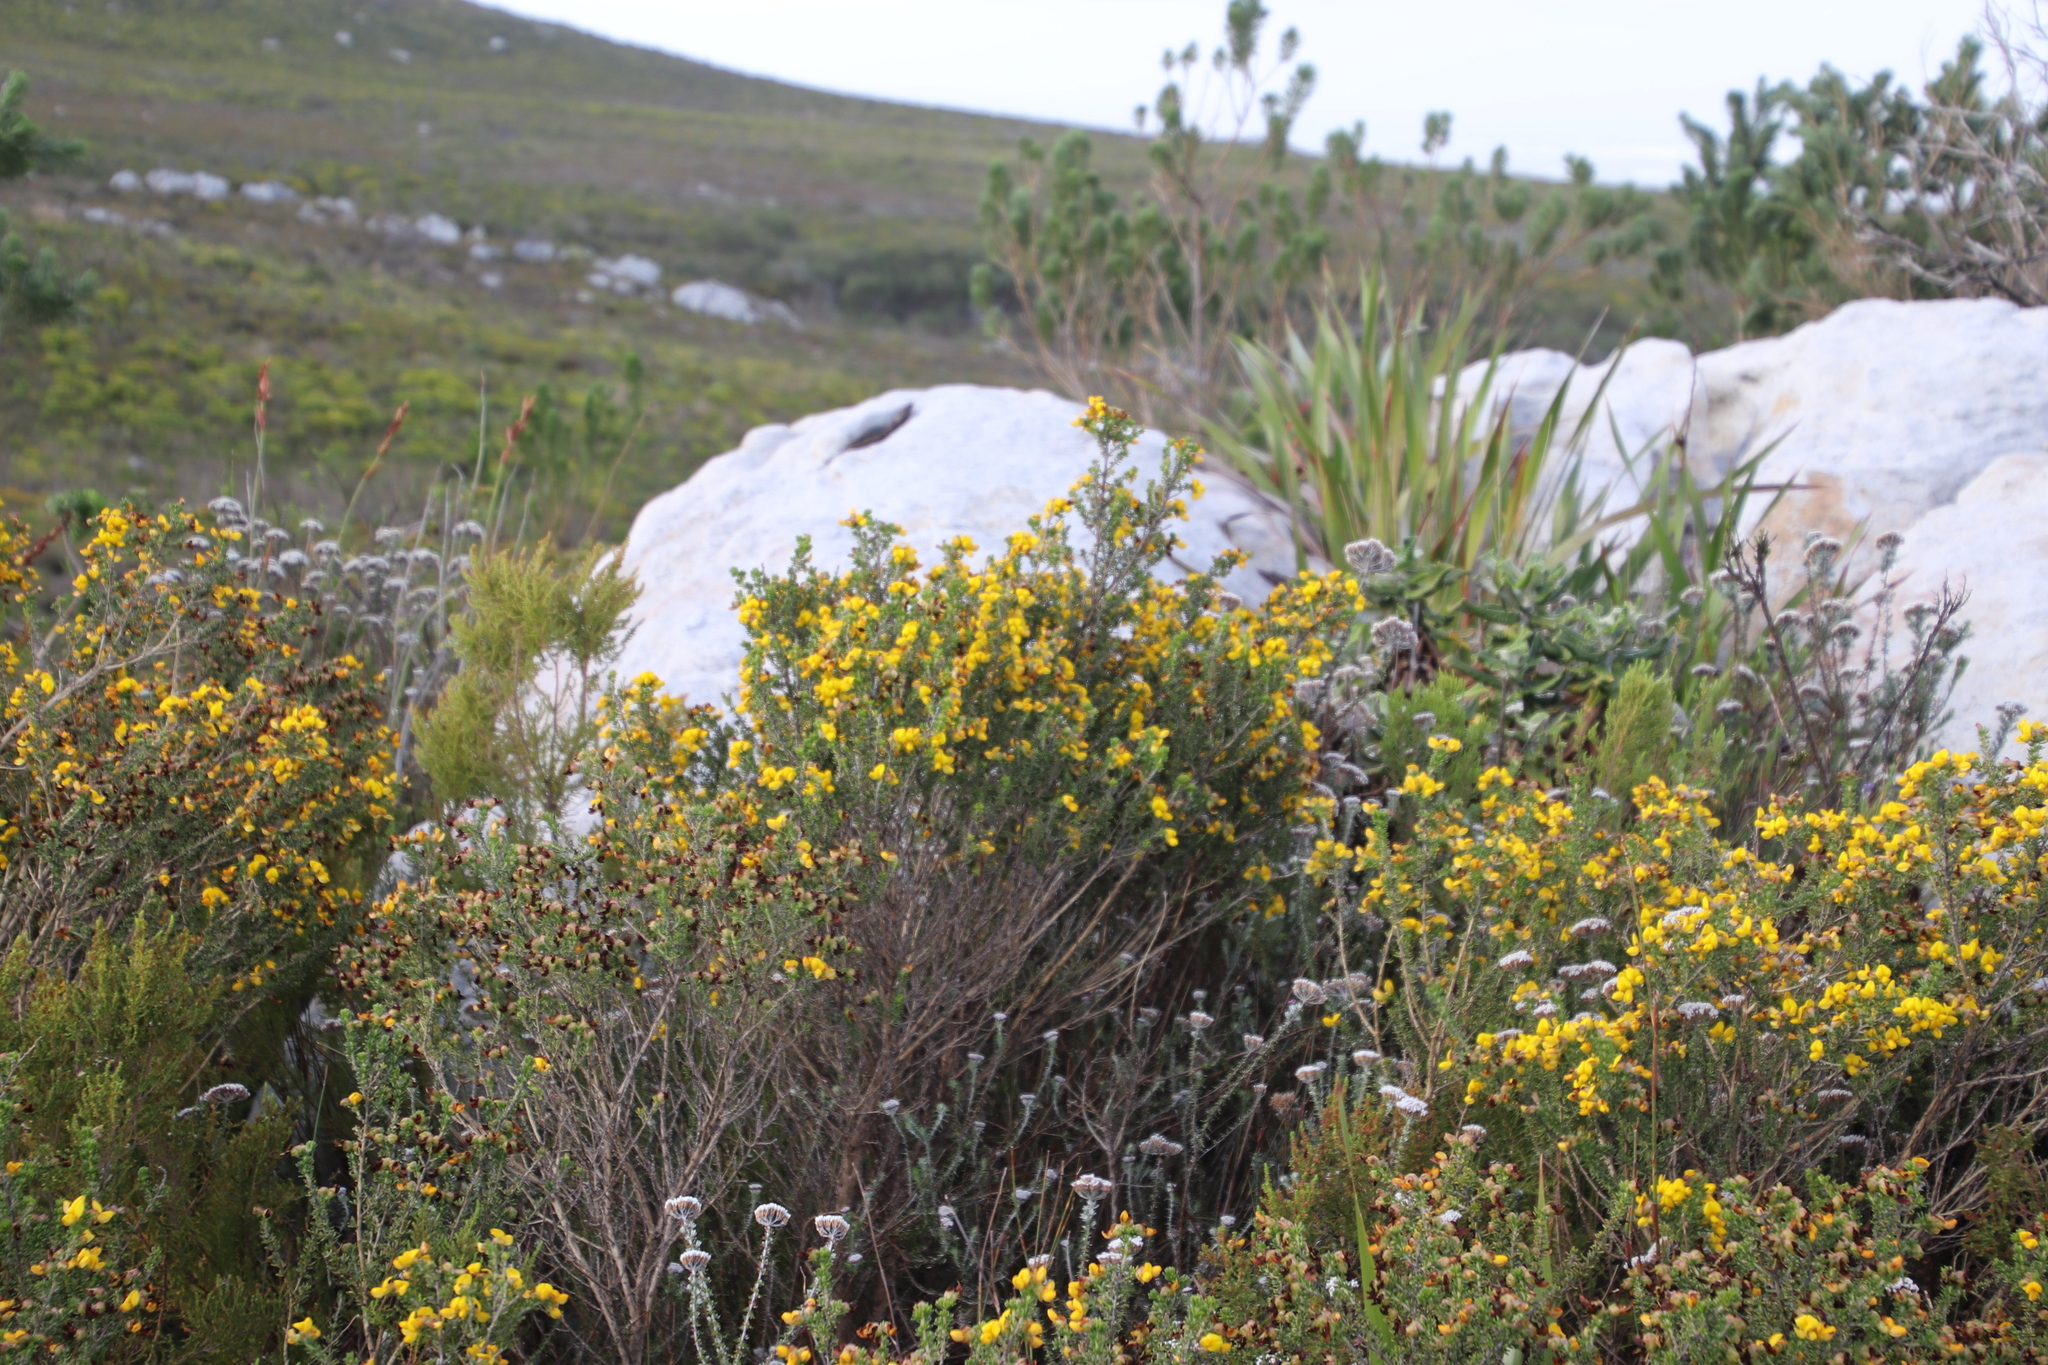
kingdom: Plantae
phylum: Tracheophyta
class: Magnoliopsida
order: Fabales
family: Fabaceae
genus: Aspalathus
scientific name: Aspalathus carnosa
